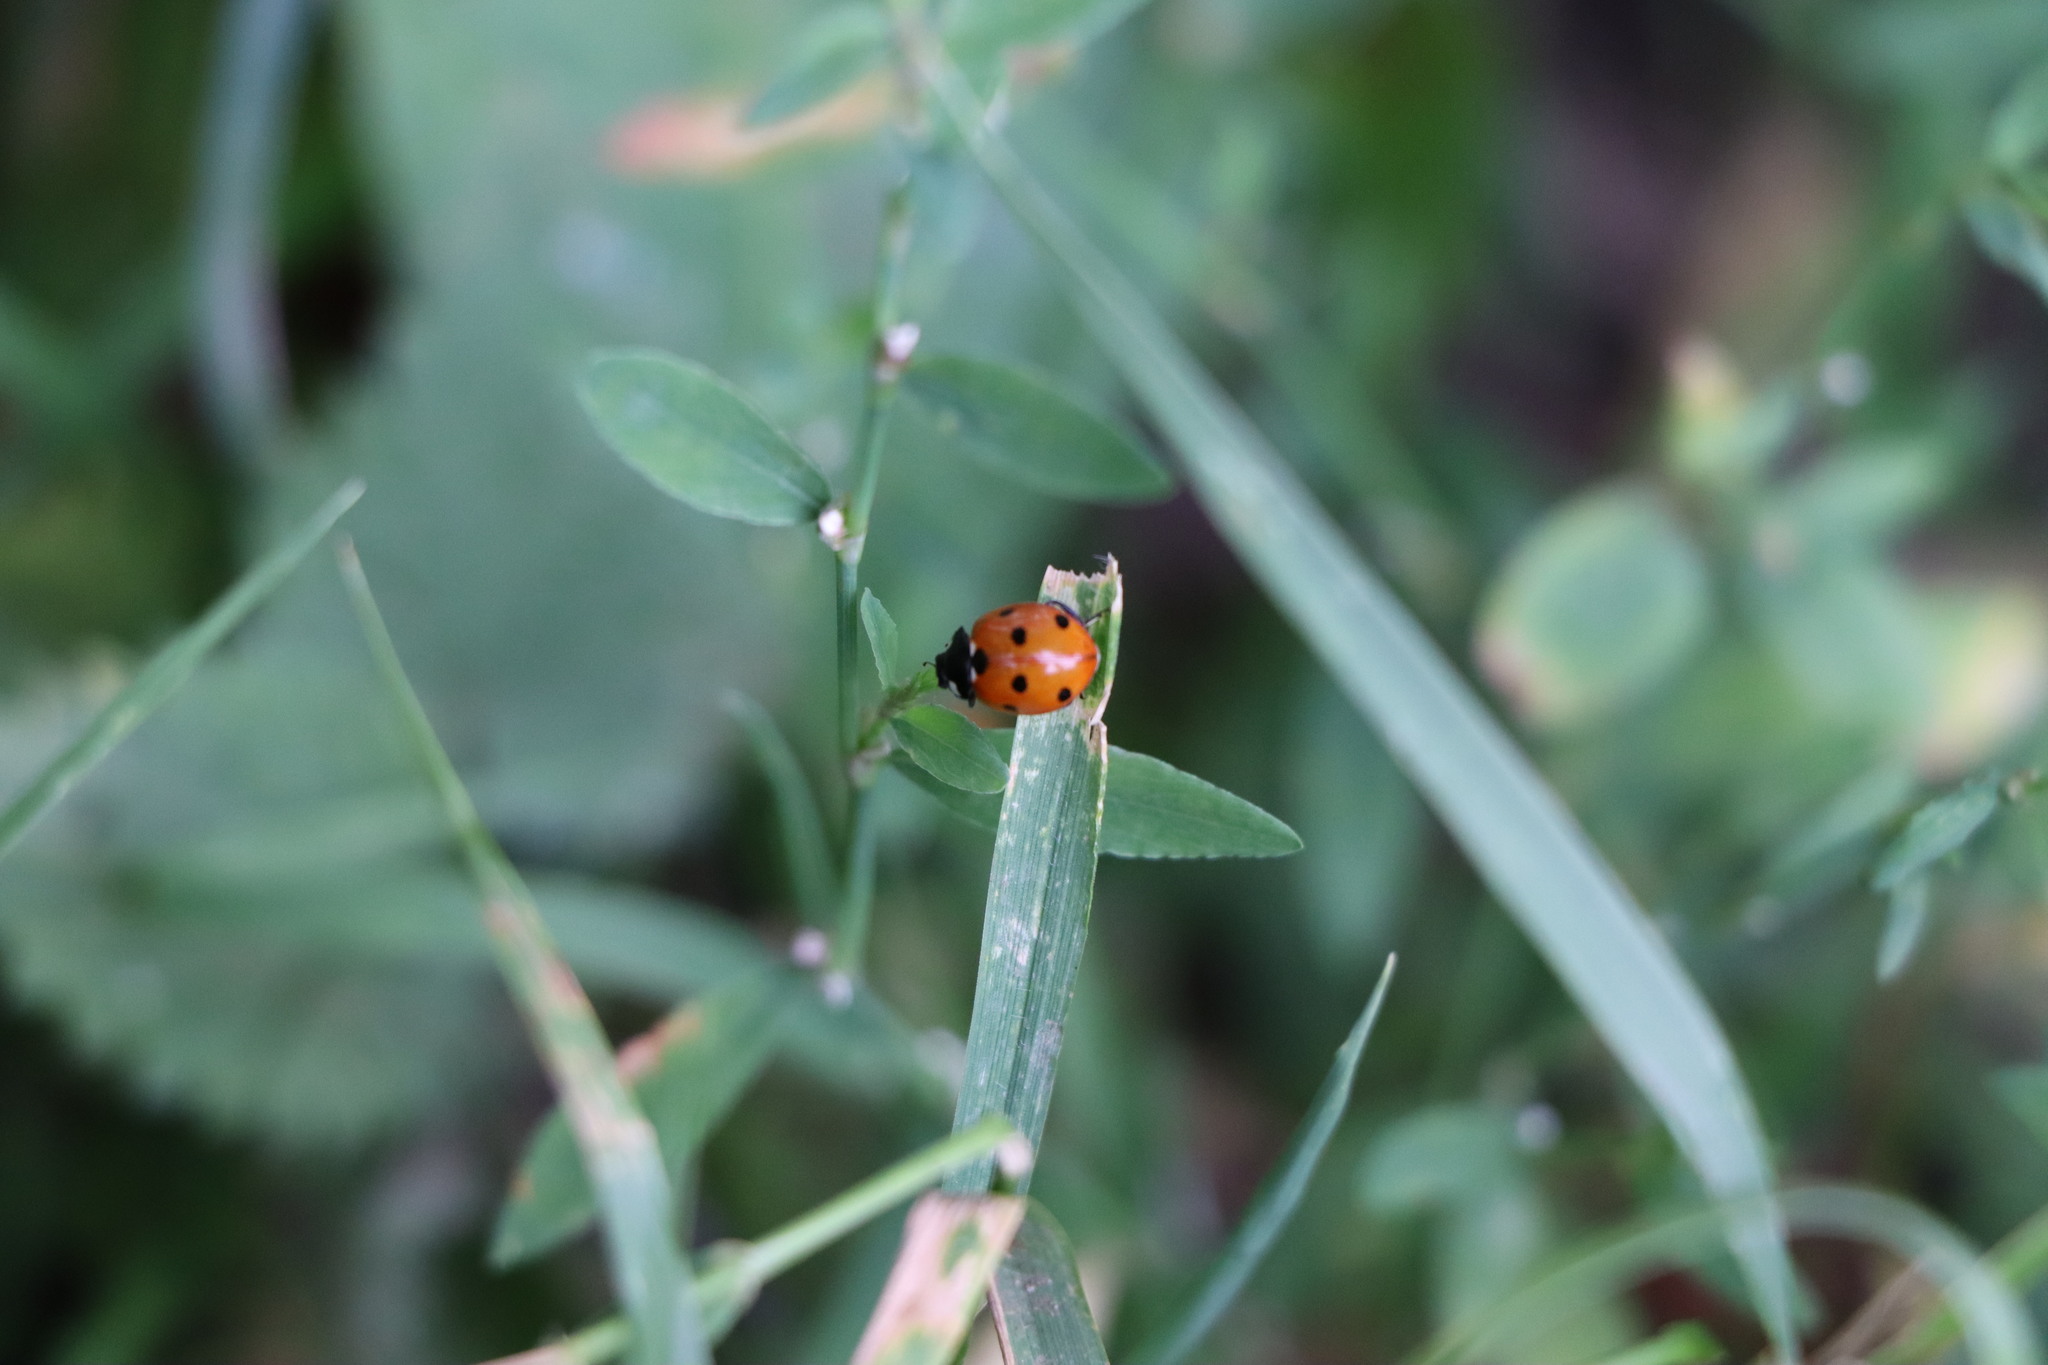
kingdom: Animalia
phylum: Arthropoda
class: Insecta
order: Coleoptera
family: Coccinellidae
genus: Coccinella
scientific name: Coccinella septempunctata
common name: Sevenspotted lady beetle
